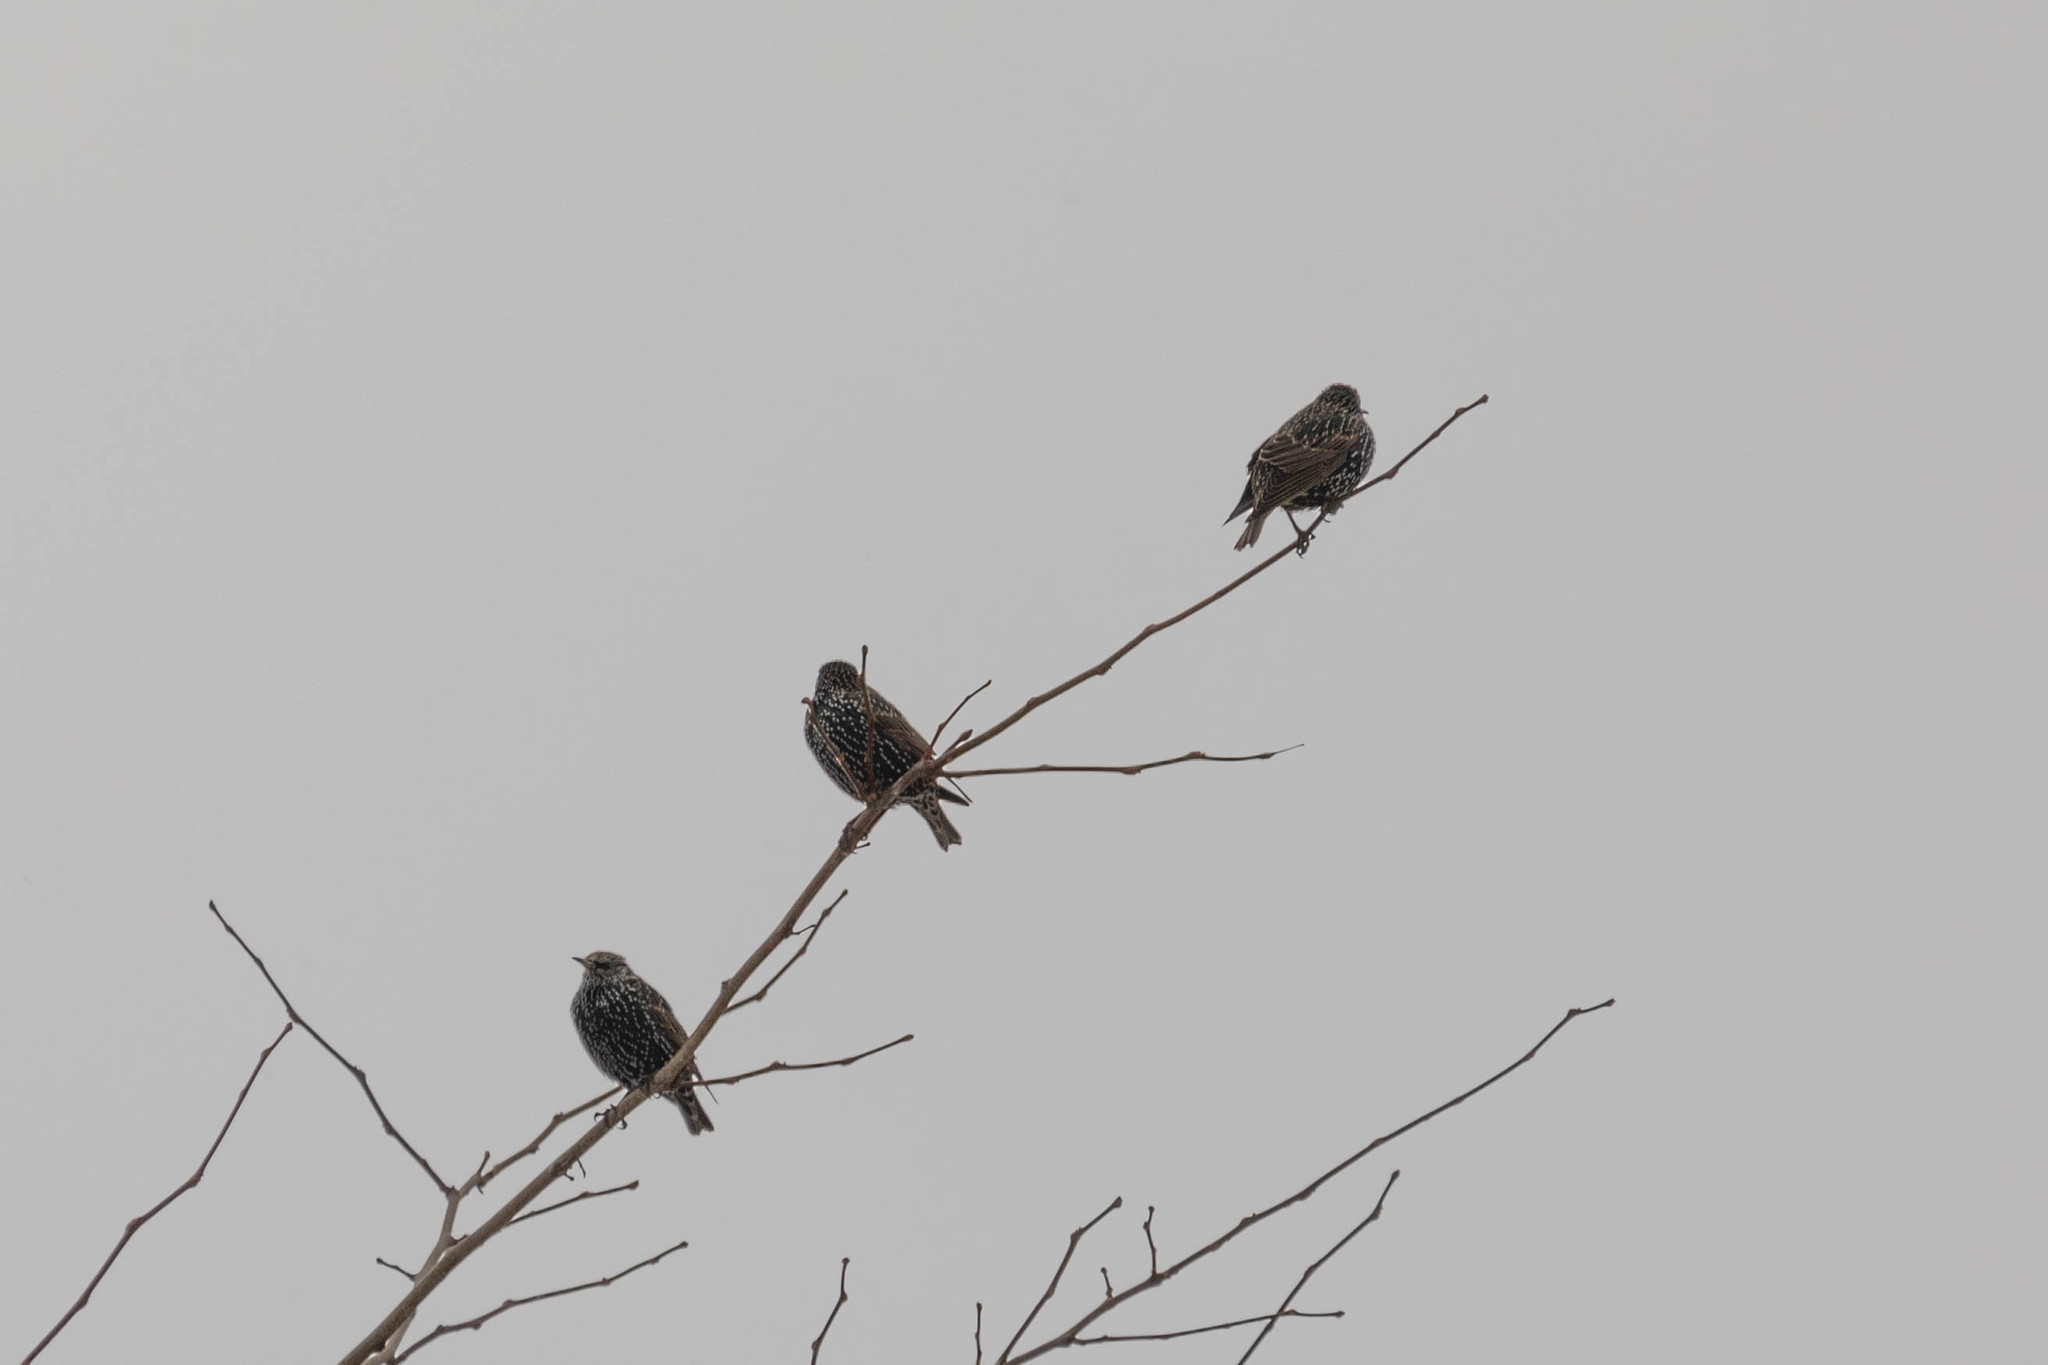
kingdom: Animalia
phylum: Chordata
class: Aves
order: Passeriformes
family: Sturnidae
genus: Sturnus
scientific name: Sturnus vulgaris
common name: Common starling
